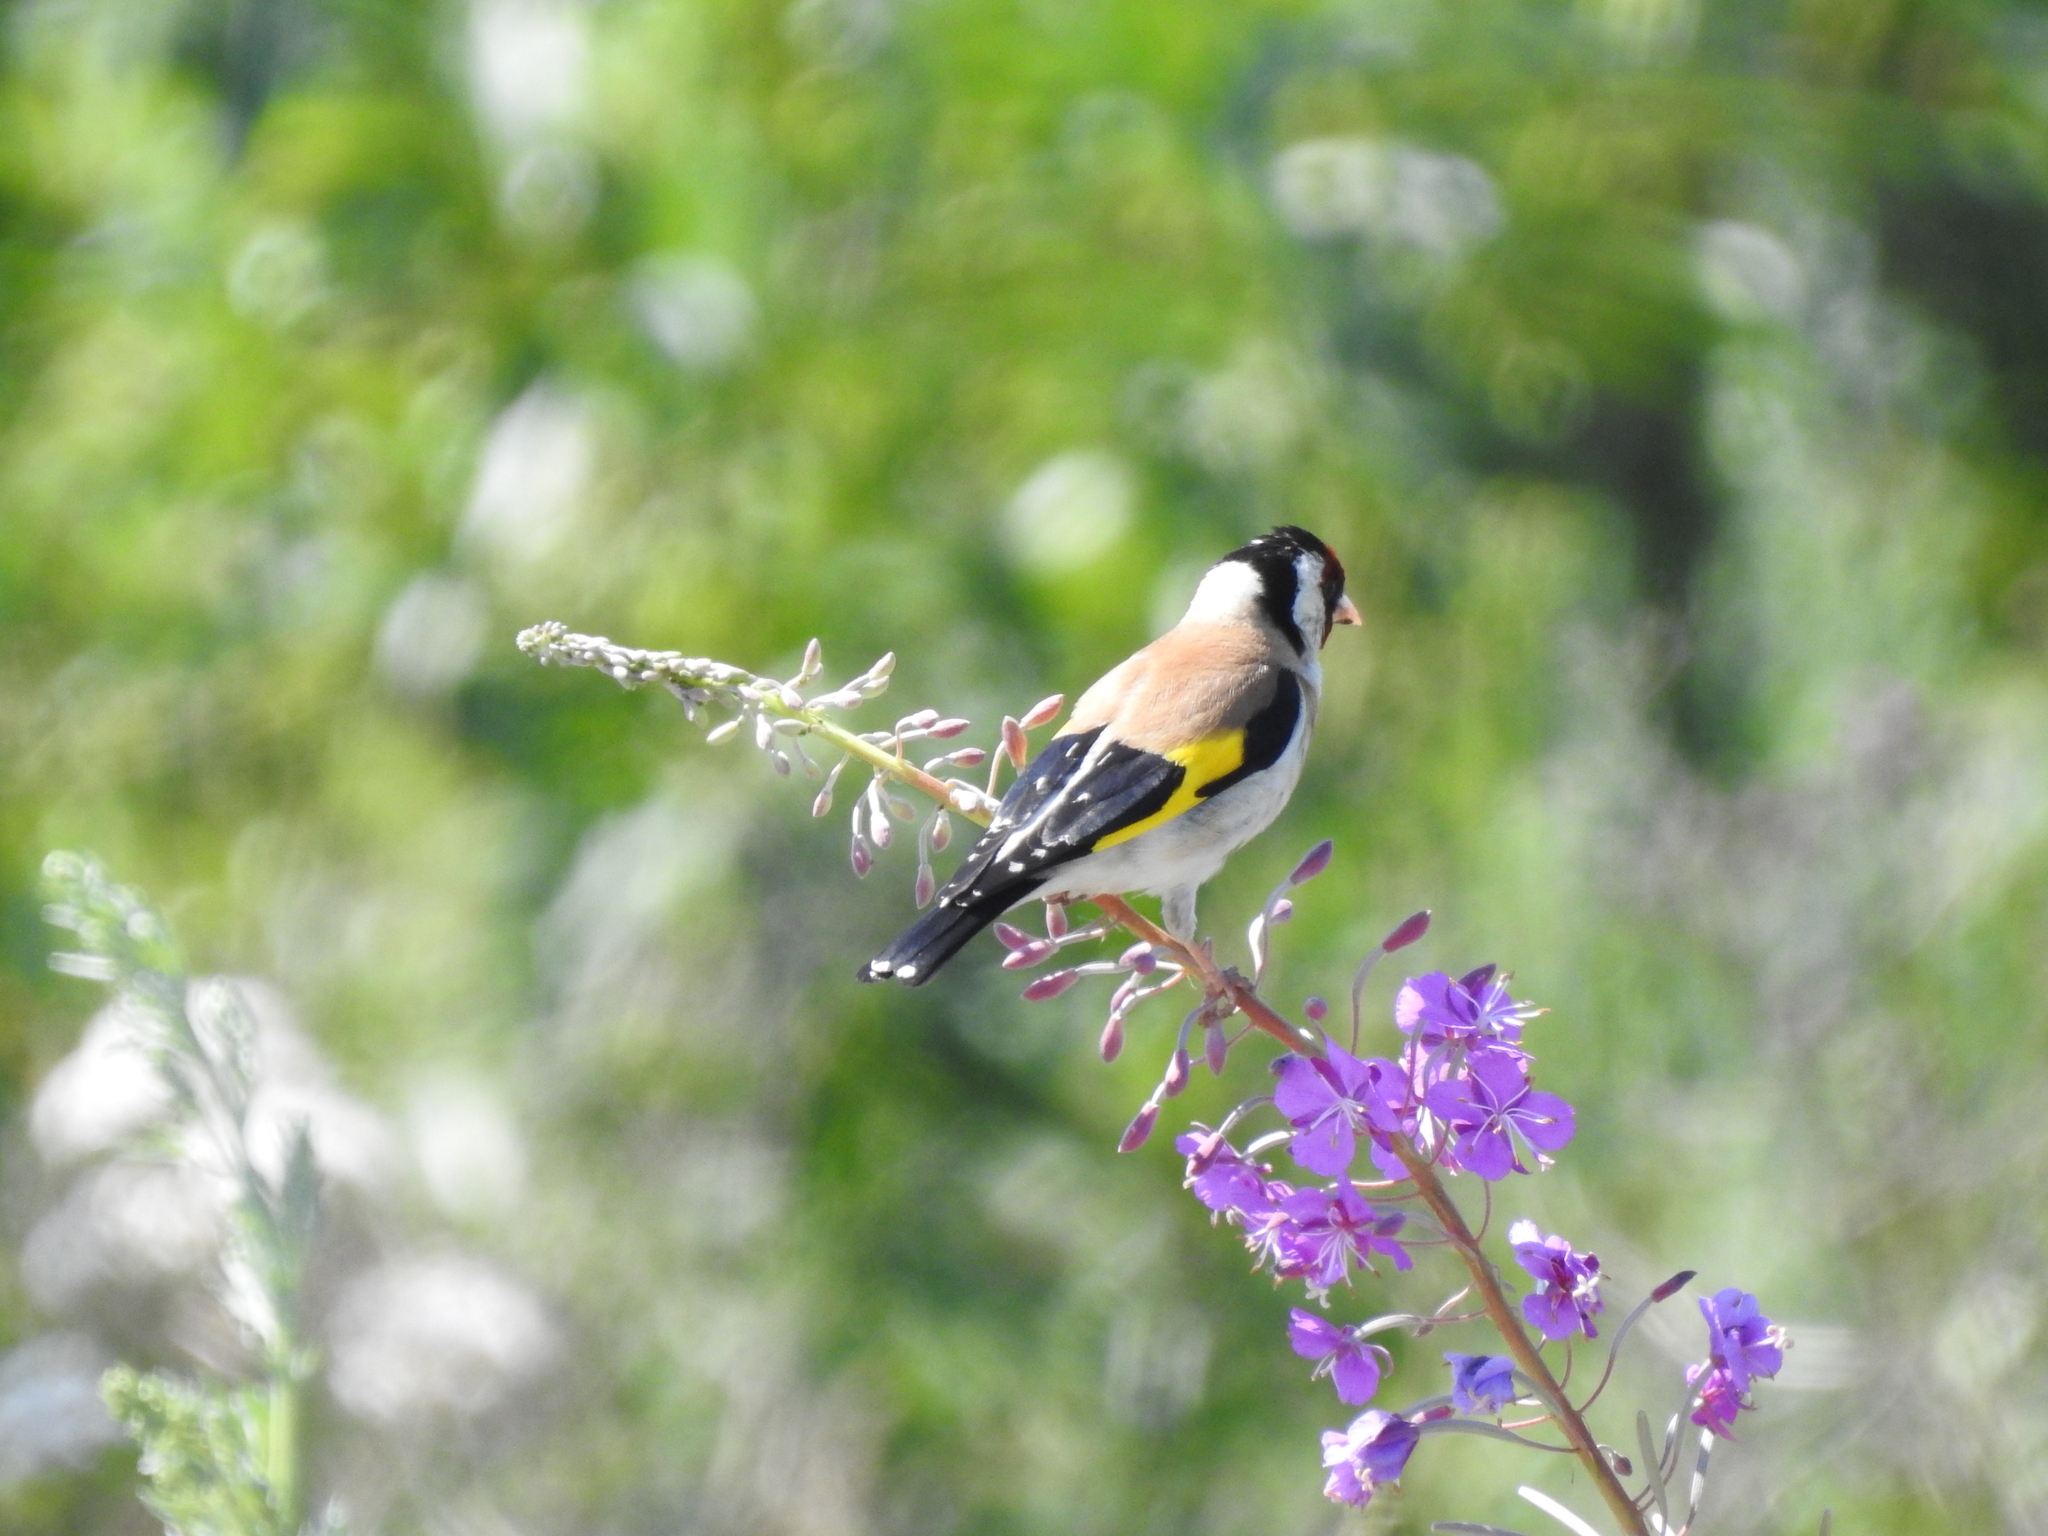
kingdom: Animalia
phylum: Chordata
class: Aves
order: Passeriformes
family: Fringillidae
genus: Carduelis
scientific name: Carduelis carduelis
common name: European goldfinch
